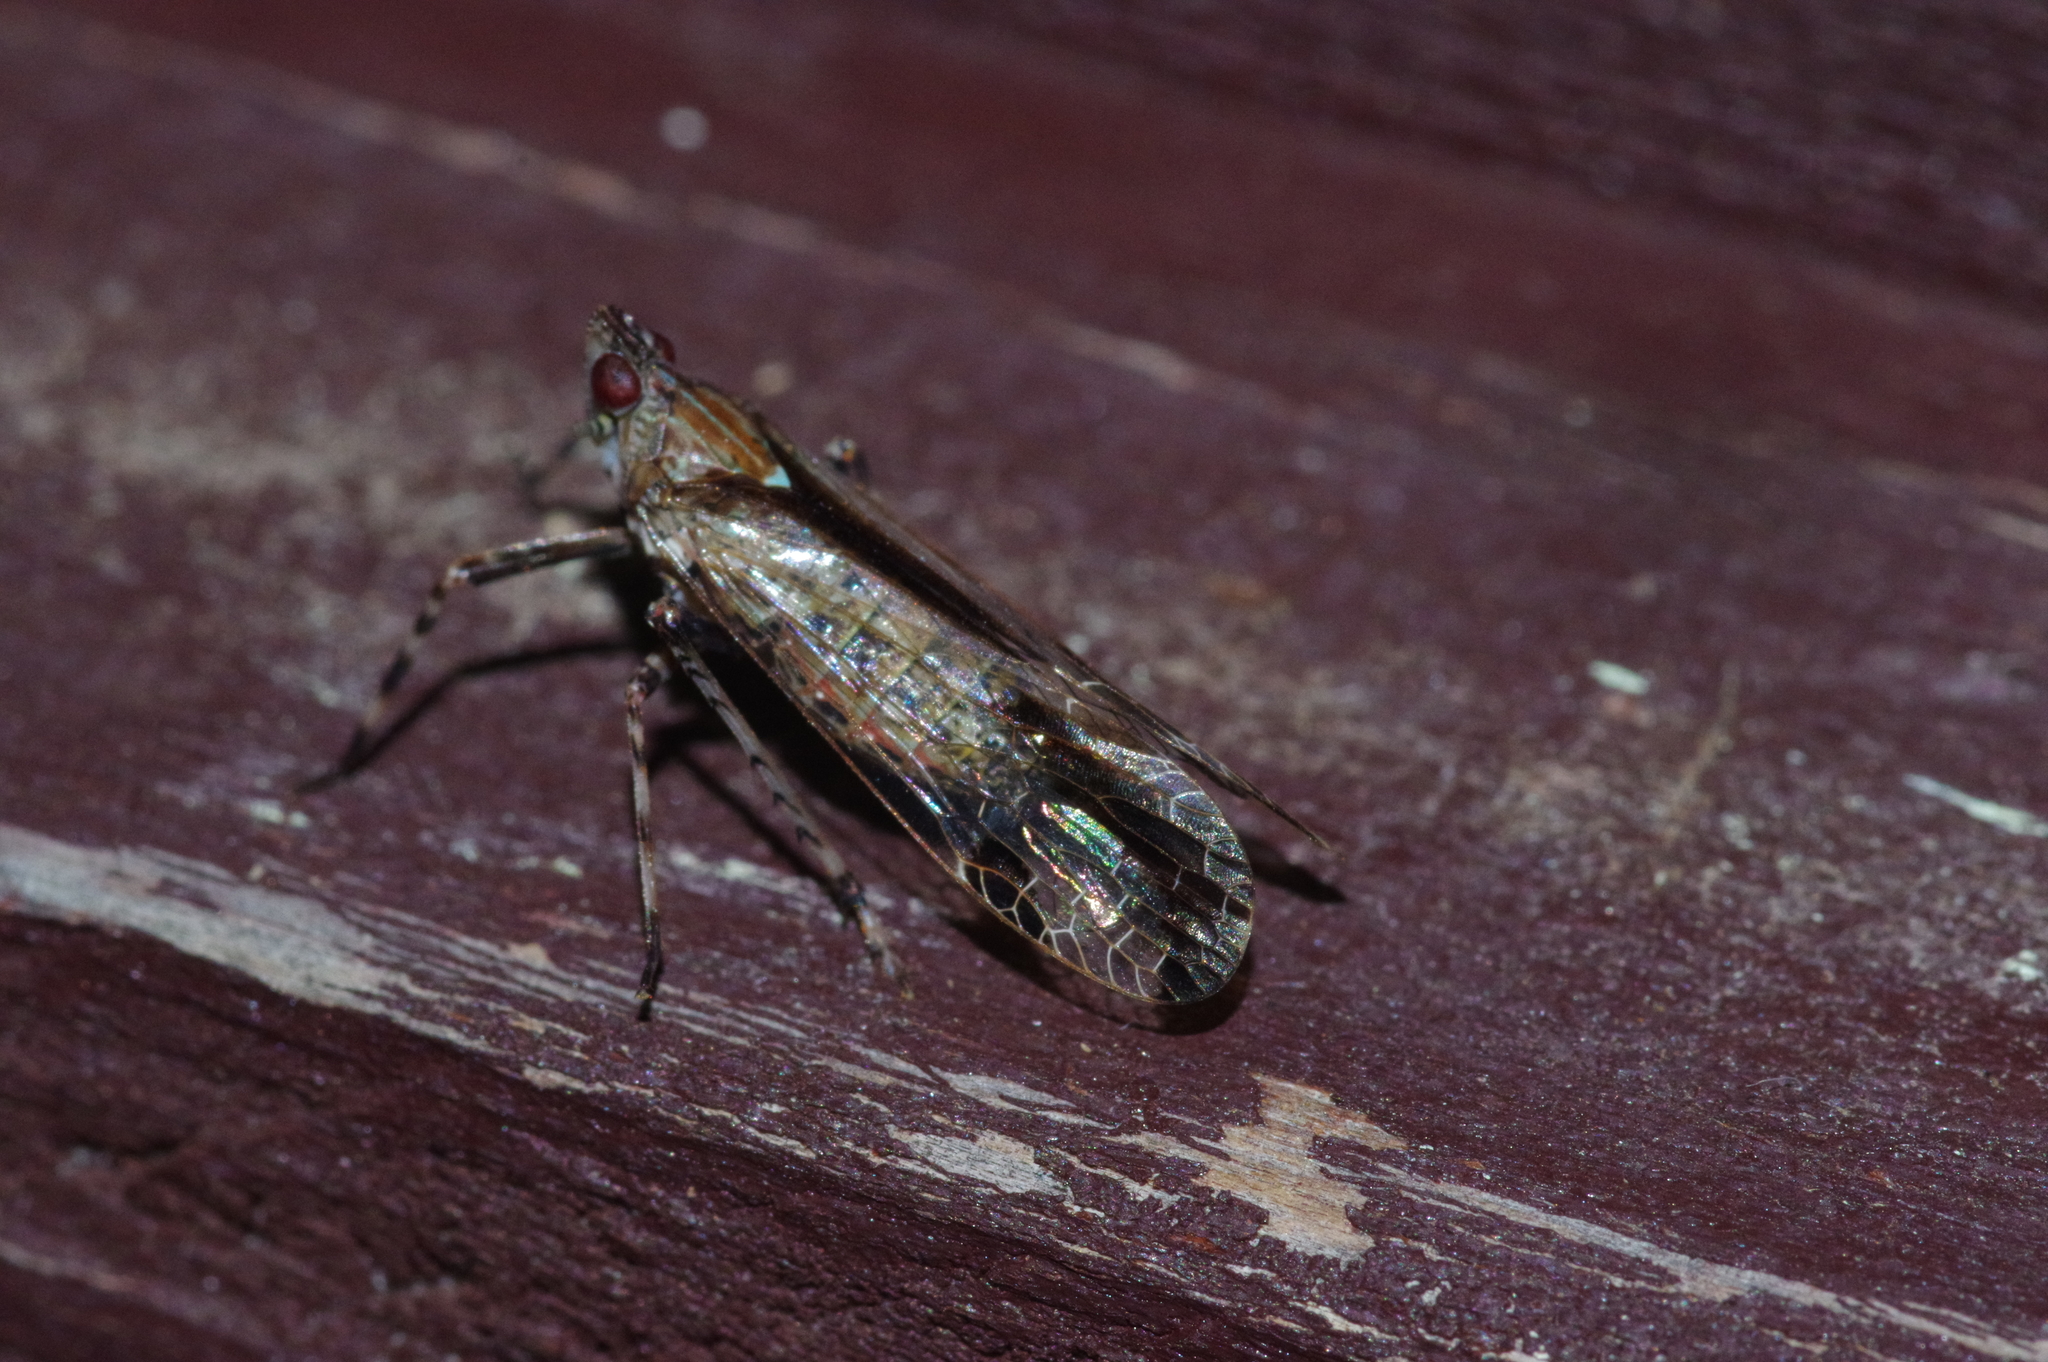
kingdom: Animalia
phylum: Arthropoda
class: Insecta
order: Hemiptera
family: Dictyopharidae
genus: Orthopagus
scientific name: Orthopagus lunulifer
